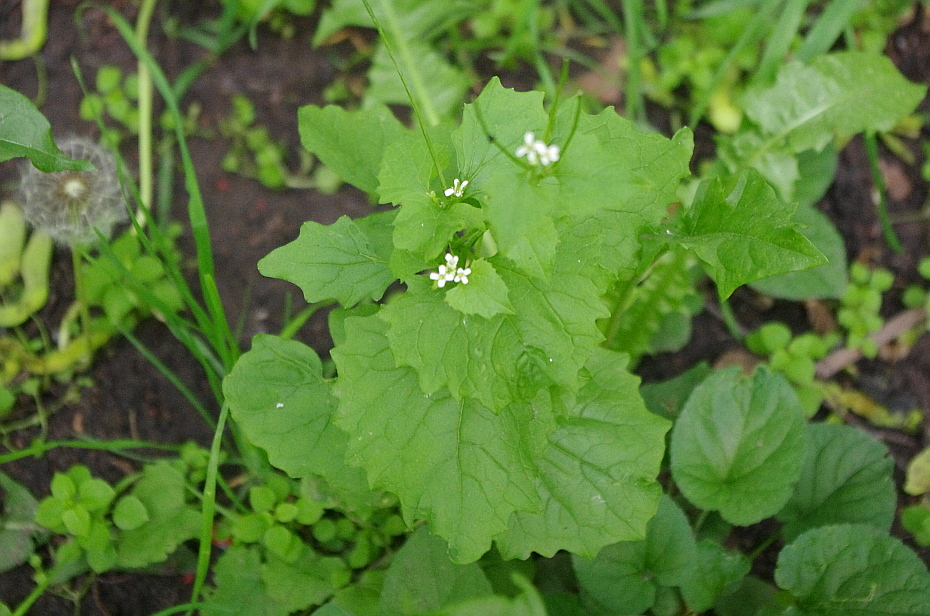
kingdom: Plantae
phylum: Tracheophyta
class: Magnoliopsida
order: Brassicales
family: Brassicaceae
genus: Alliaria
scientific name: Alliaria petiolata
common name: Garlic mustard
